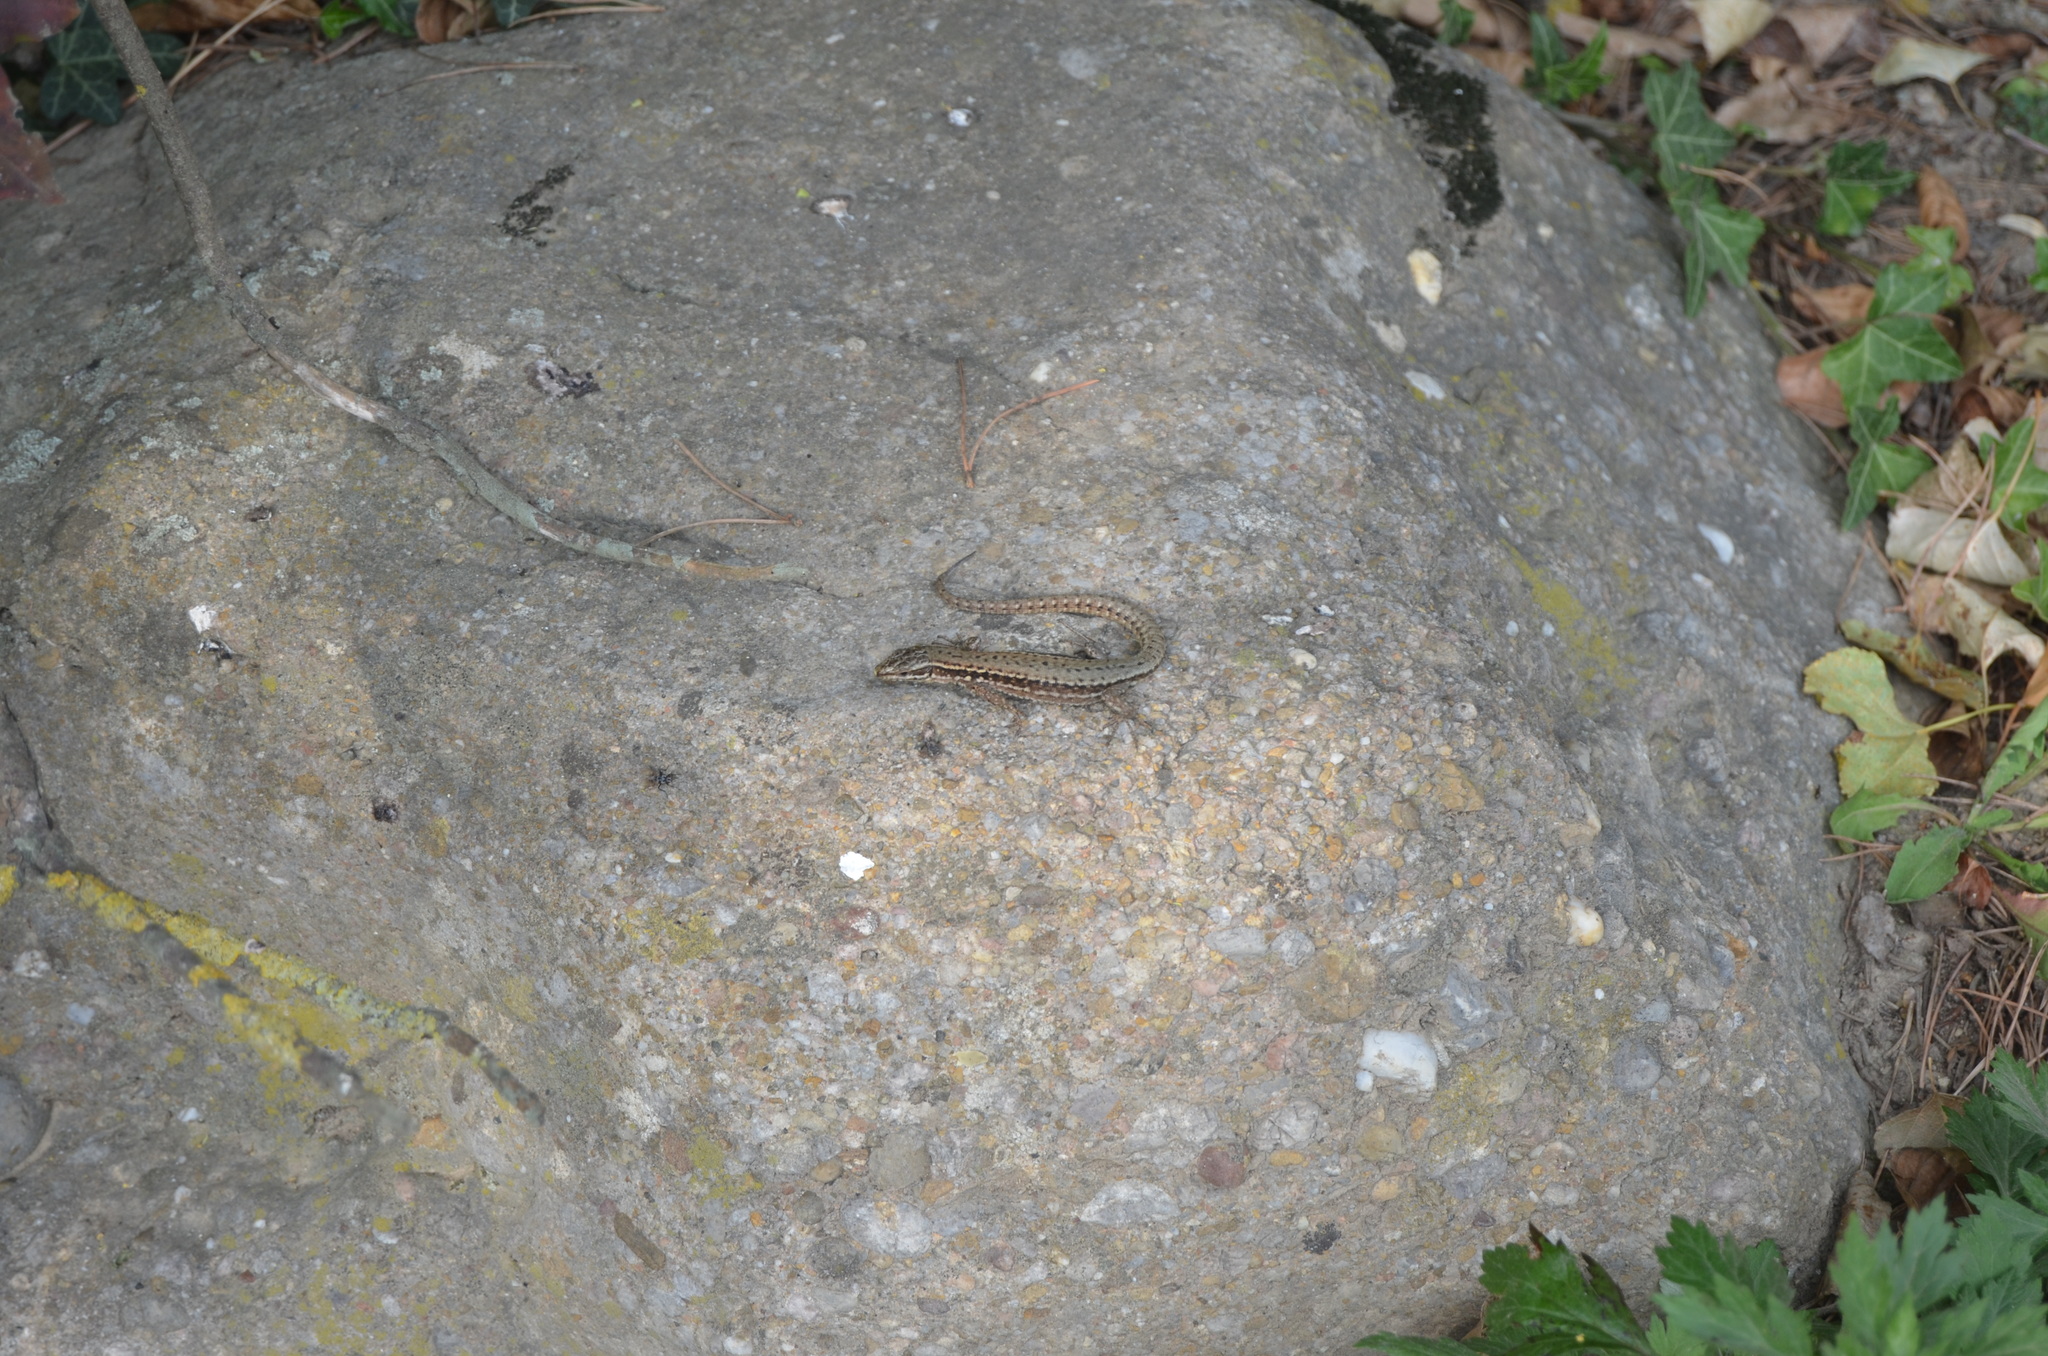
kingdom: Animalia
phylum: Chordata
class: Squamata
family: Lacertidae
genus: Podarcis
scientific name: Podarcis muralis
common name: Common wall lizard
